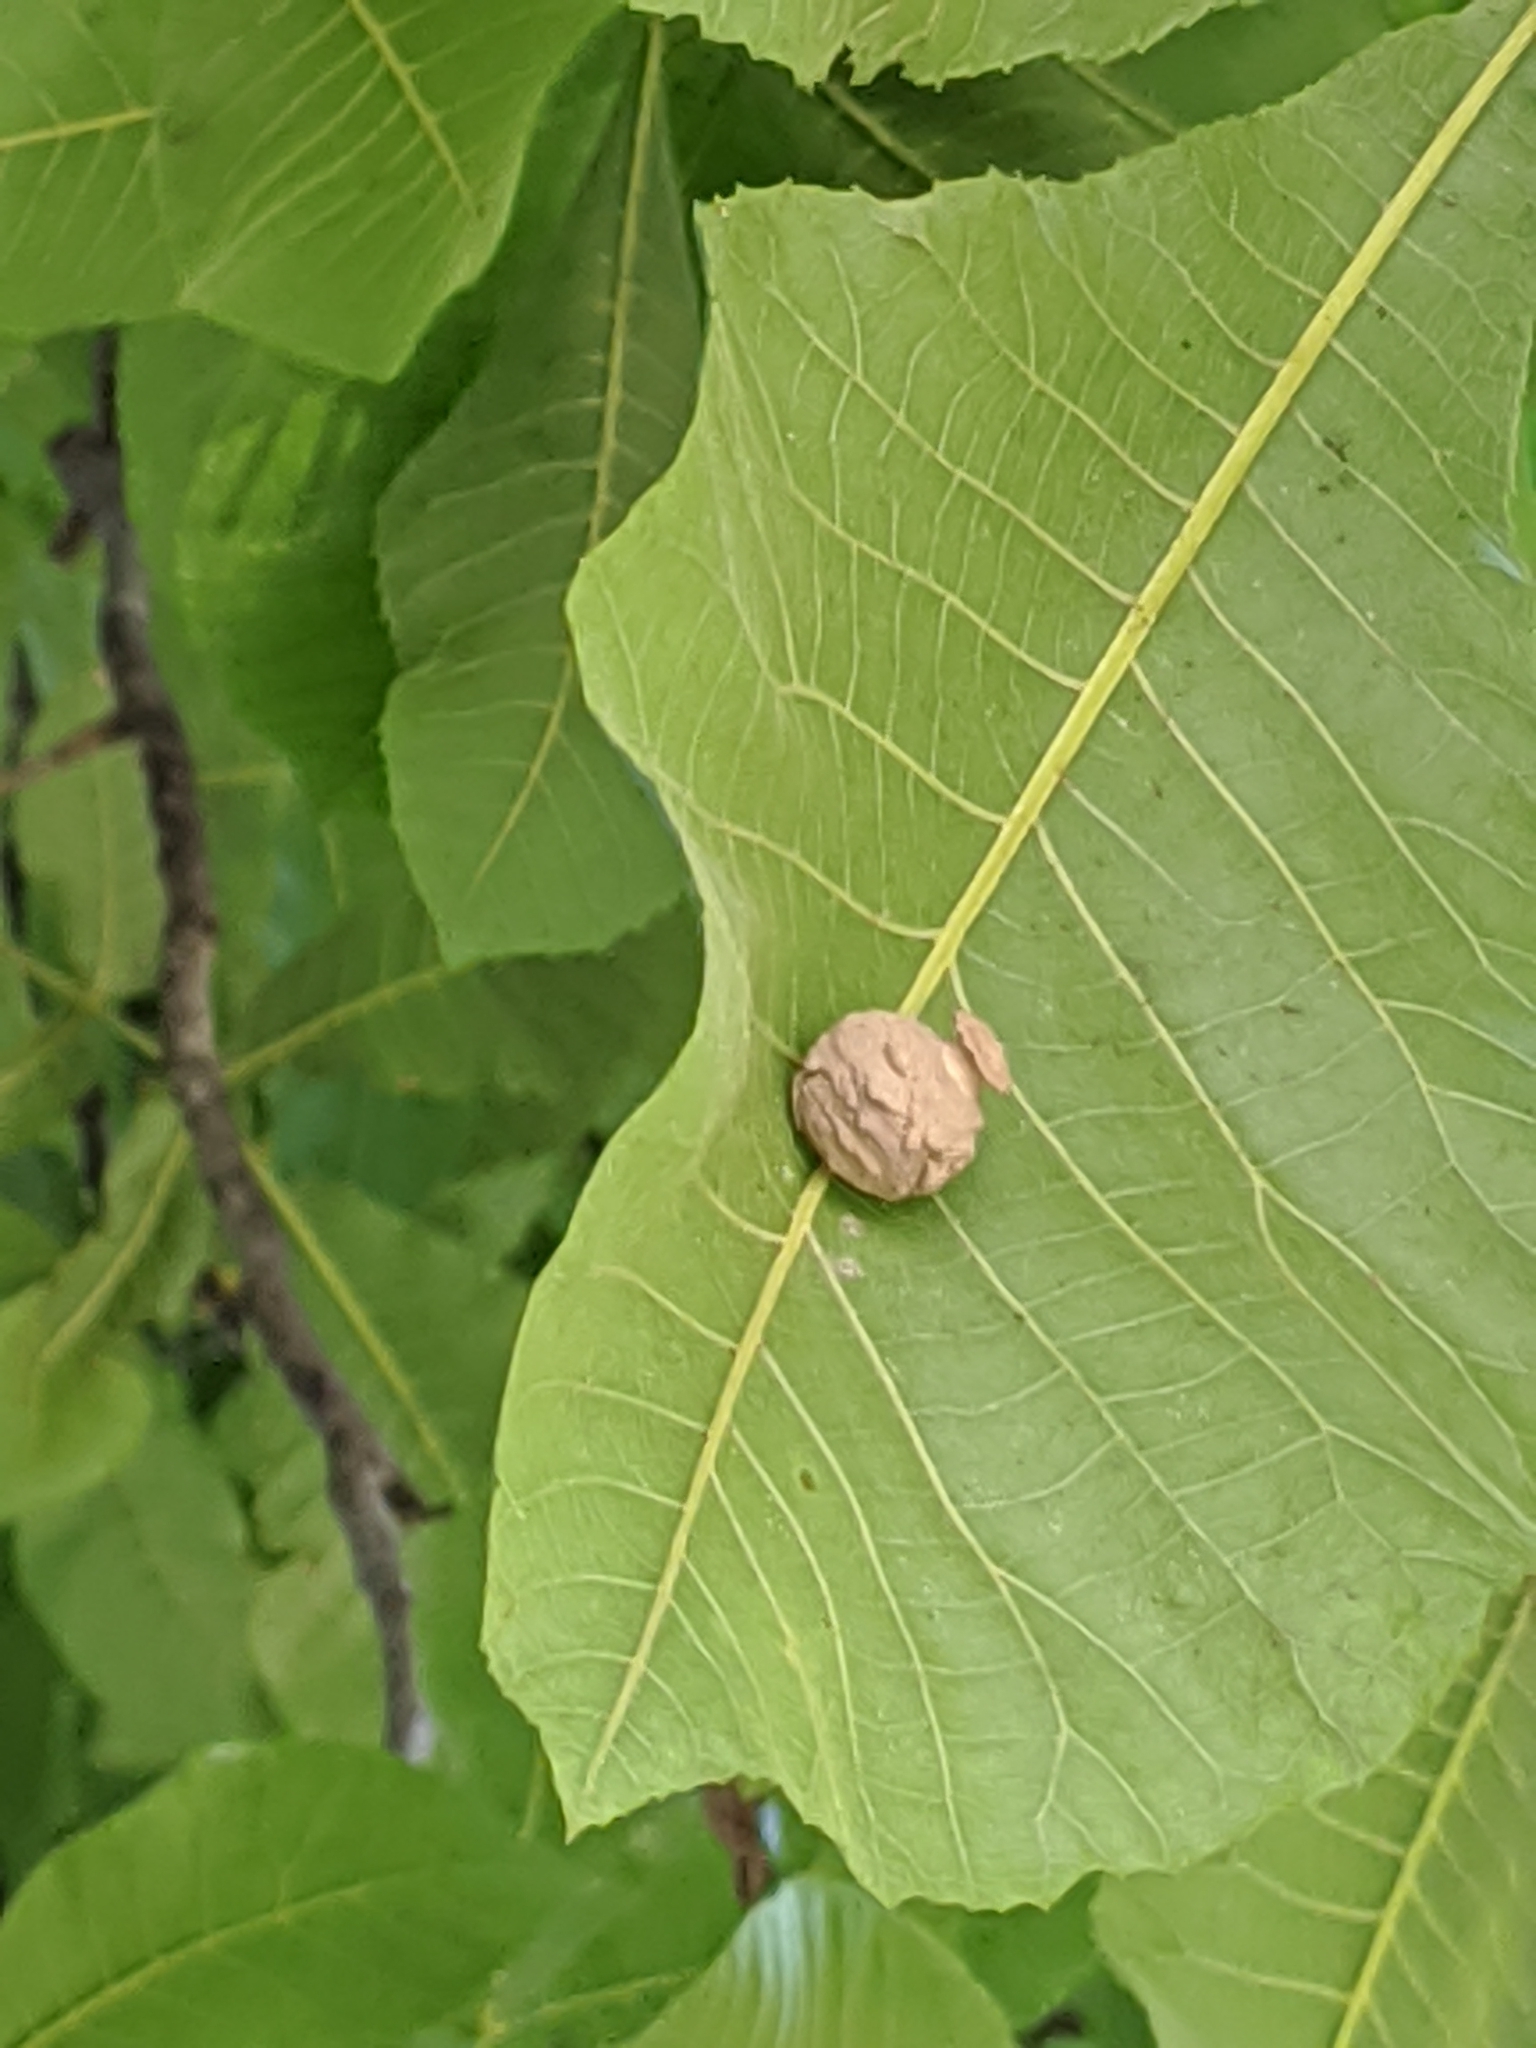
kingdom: Animalia
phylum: Arthropoda
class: Insecta
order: Hymenoptera
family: Vespidae
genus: Eumenes
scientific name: Eumenes
